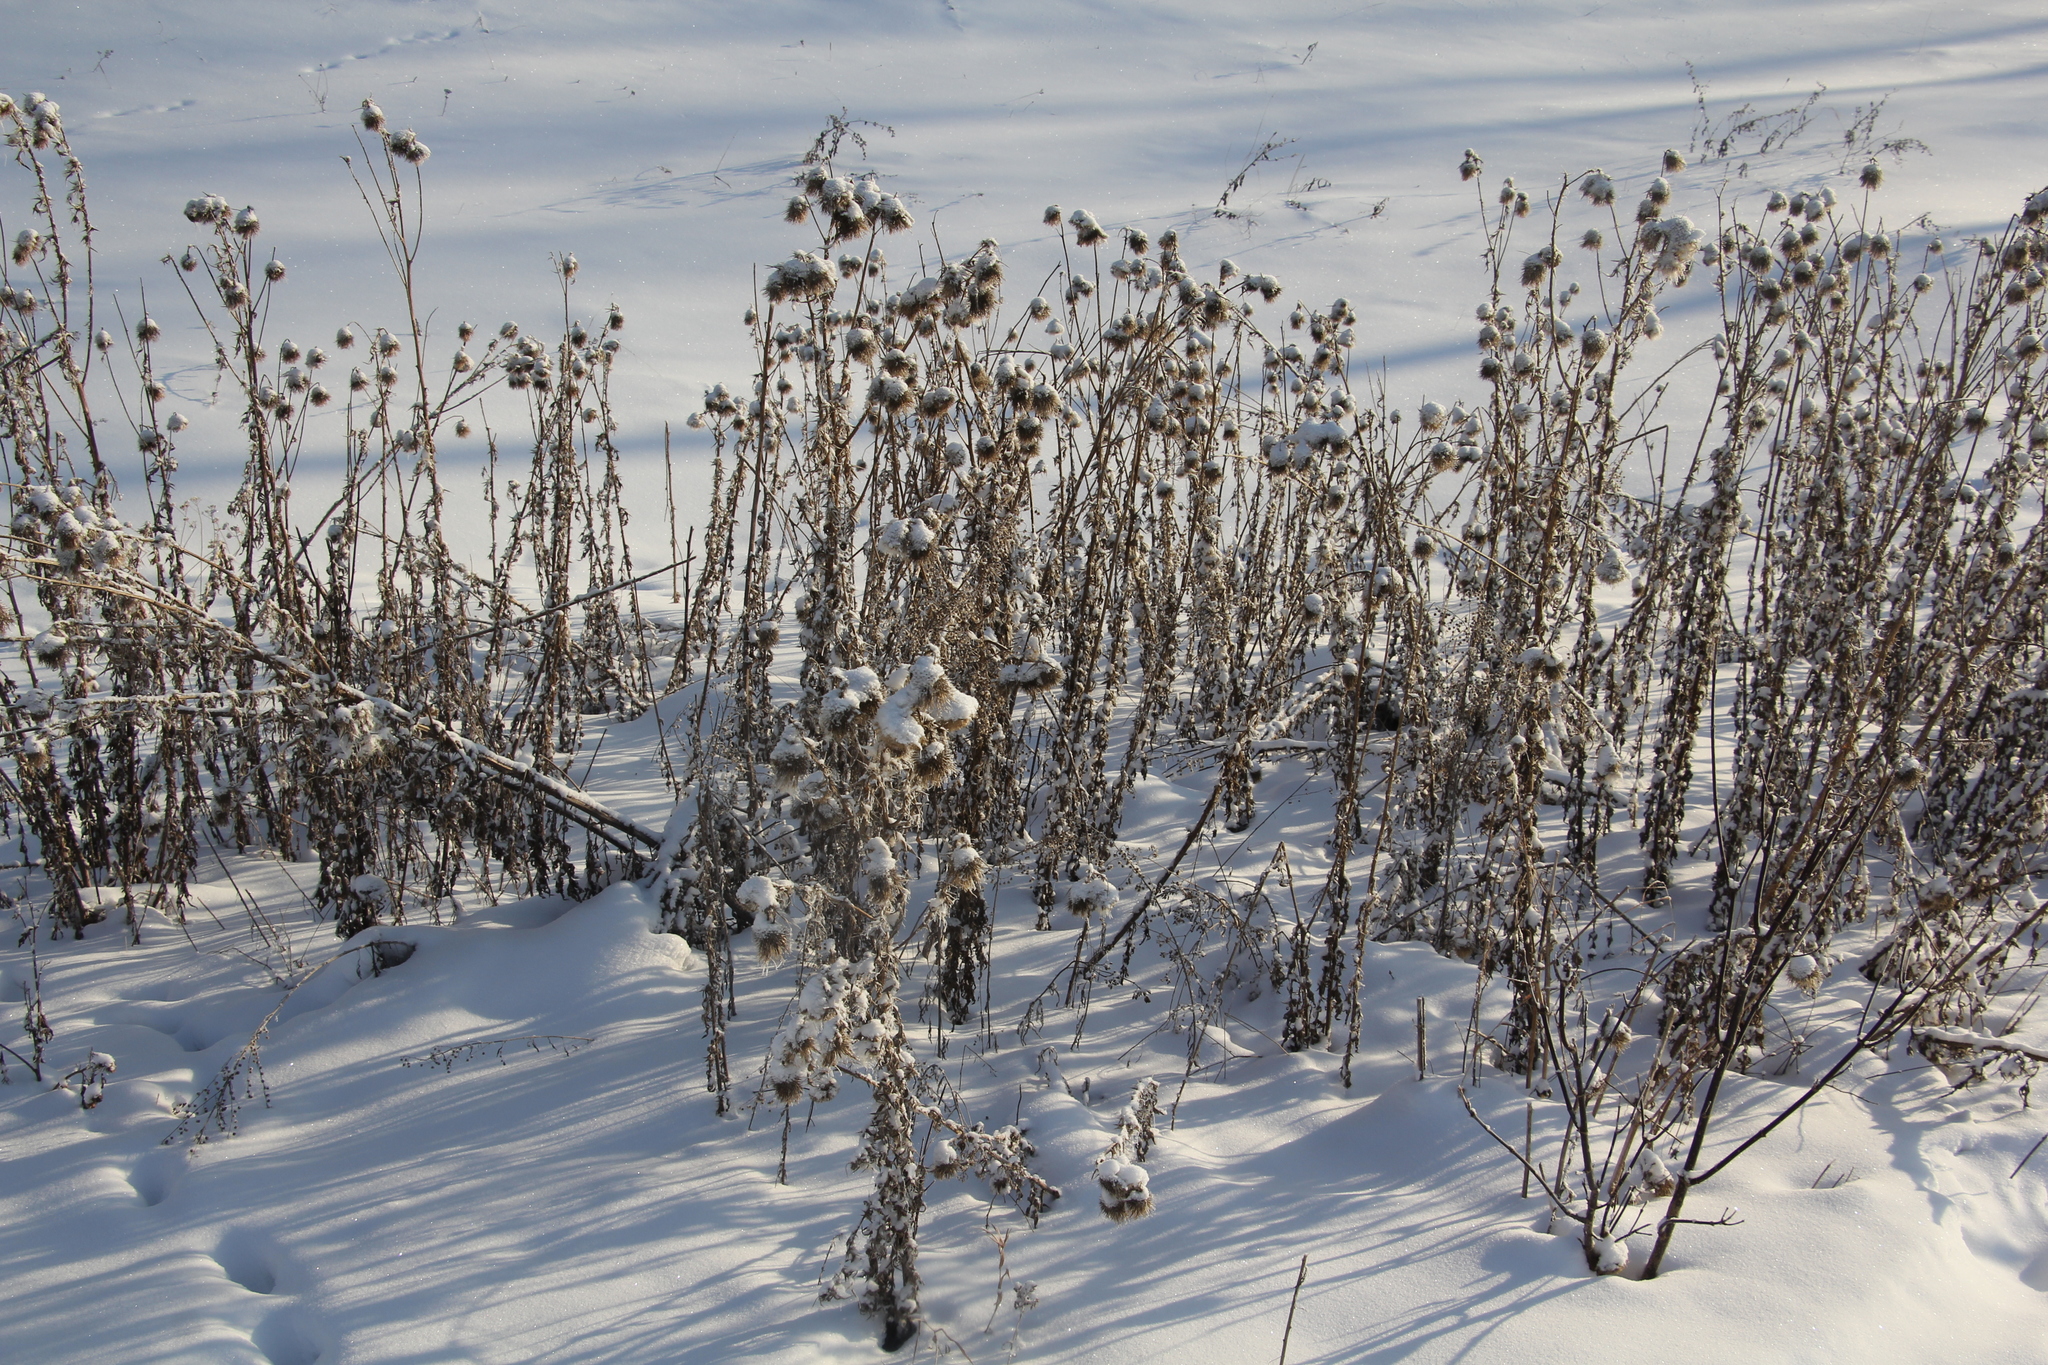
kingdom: Plantae
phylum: Tracheophyta
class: Magnoliopsida
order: Asterales
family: Asteraceae
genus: Cirsium
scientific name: Cirsium vulgare
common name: Bull thistle
